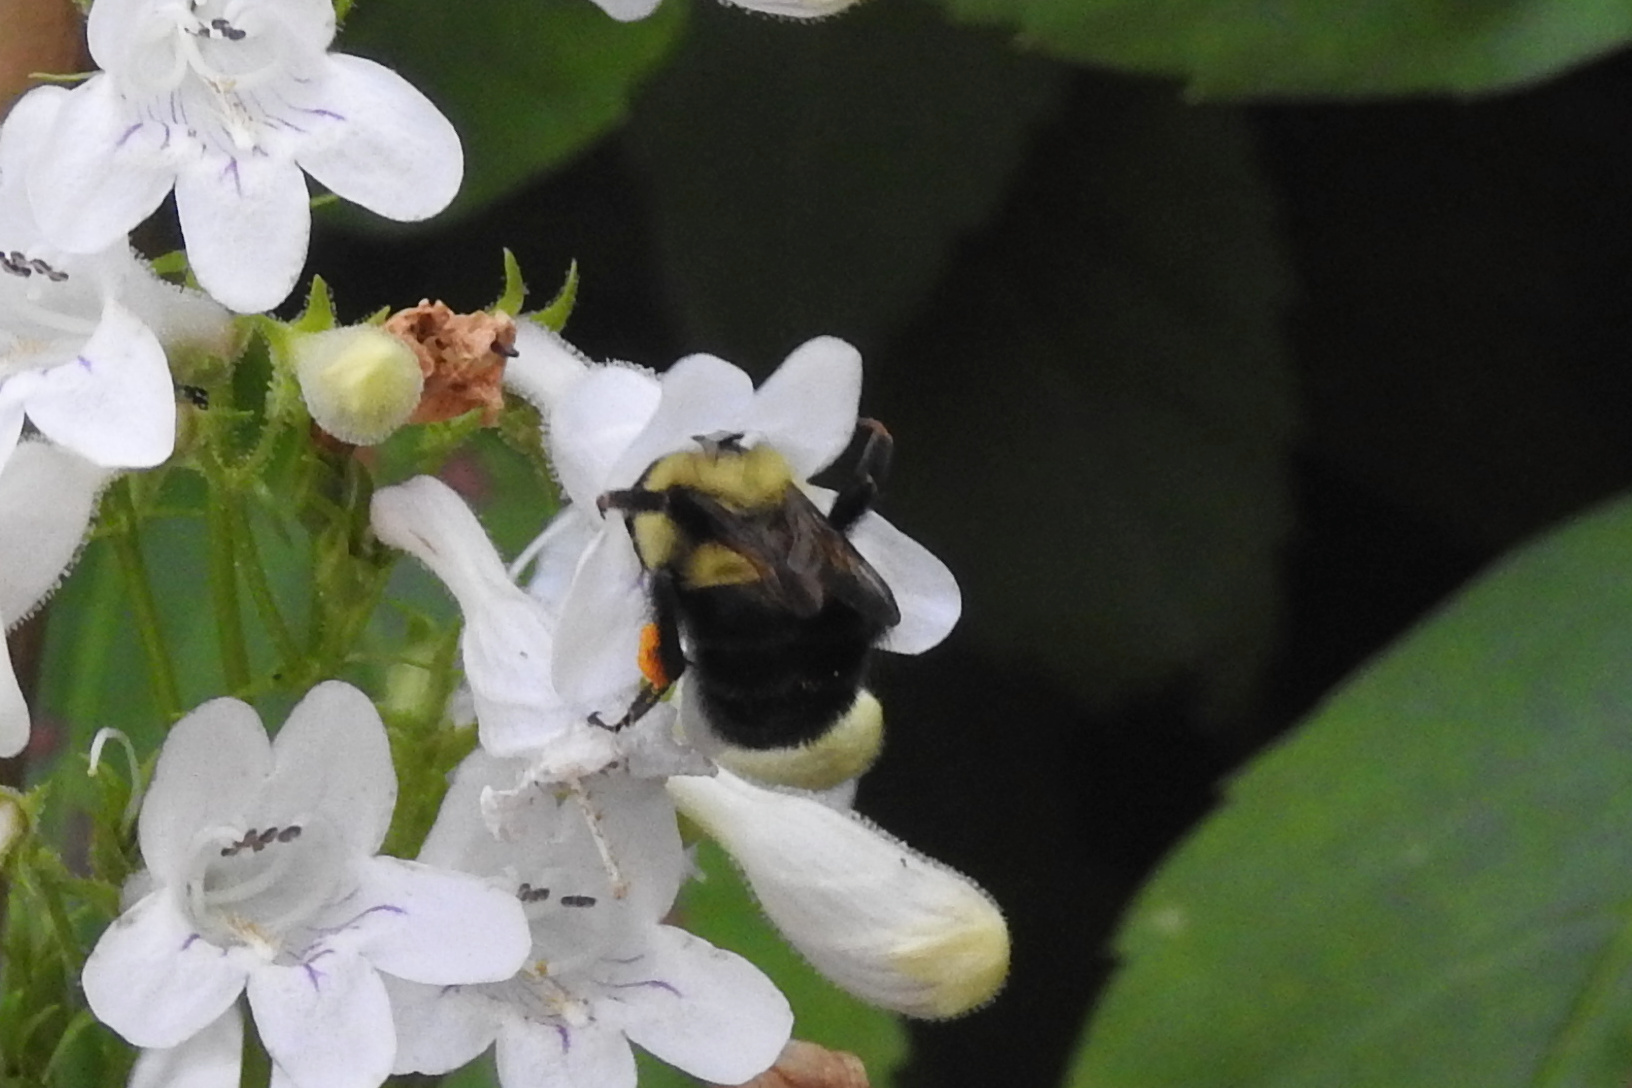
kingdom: Animalia
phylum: Arthropoda
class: Insecta
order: Hymenoptera
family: Apidae
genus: Bombus
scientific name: Bombus bimaculatus
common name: Two-spotted bumble bee
